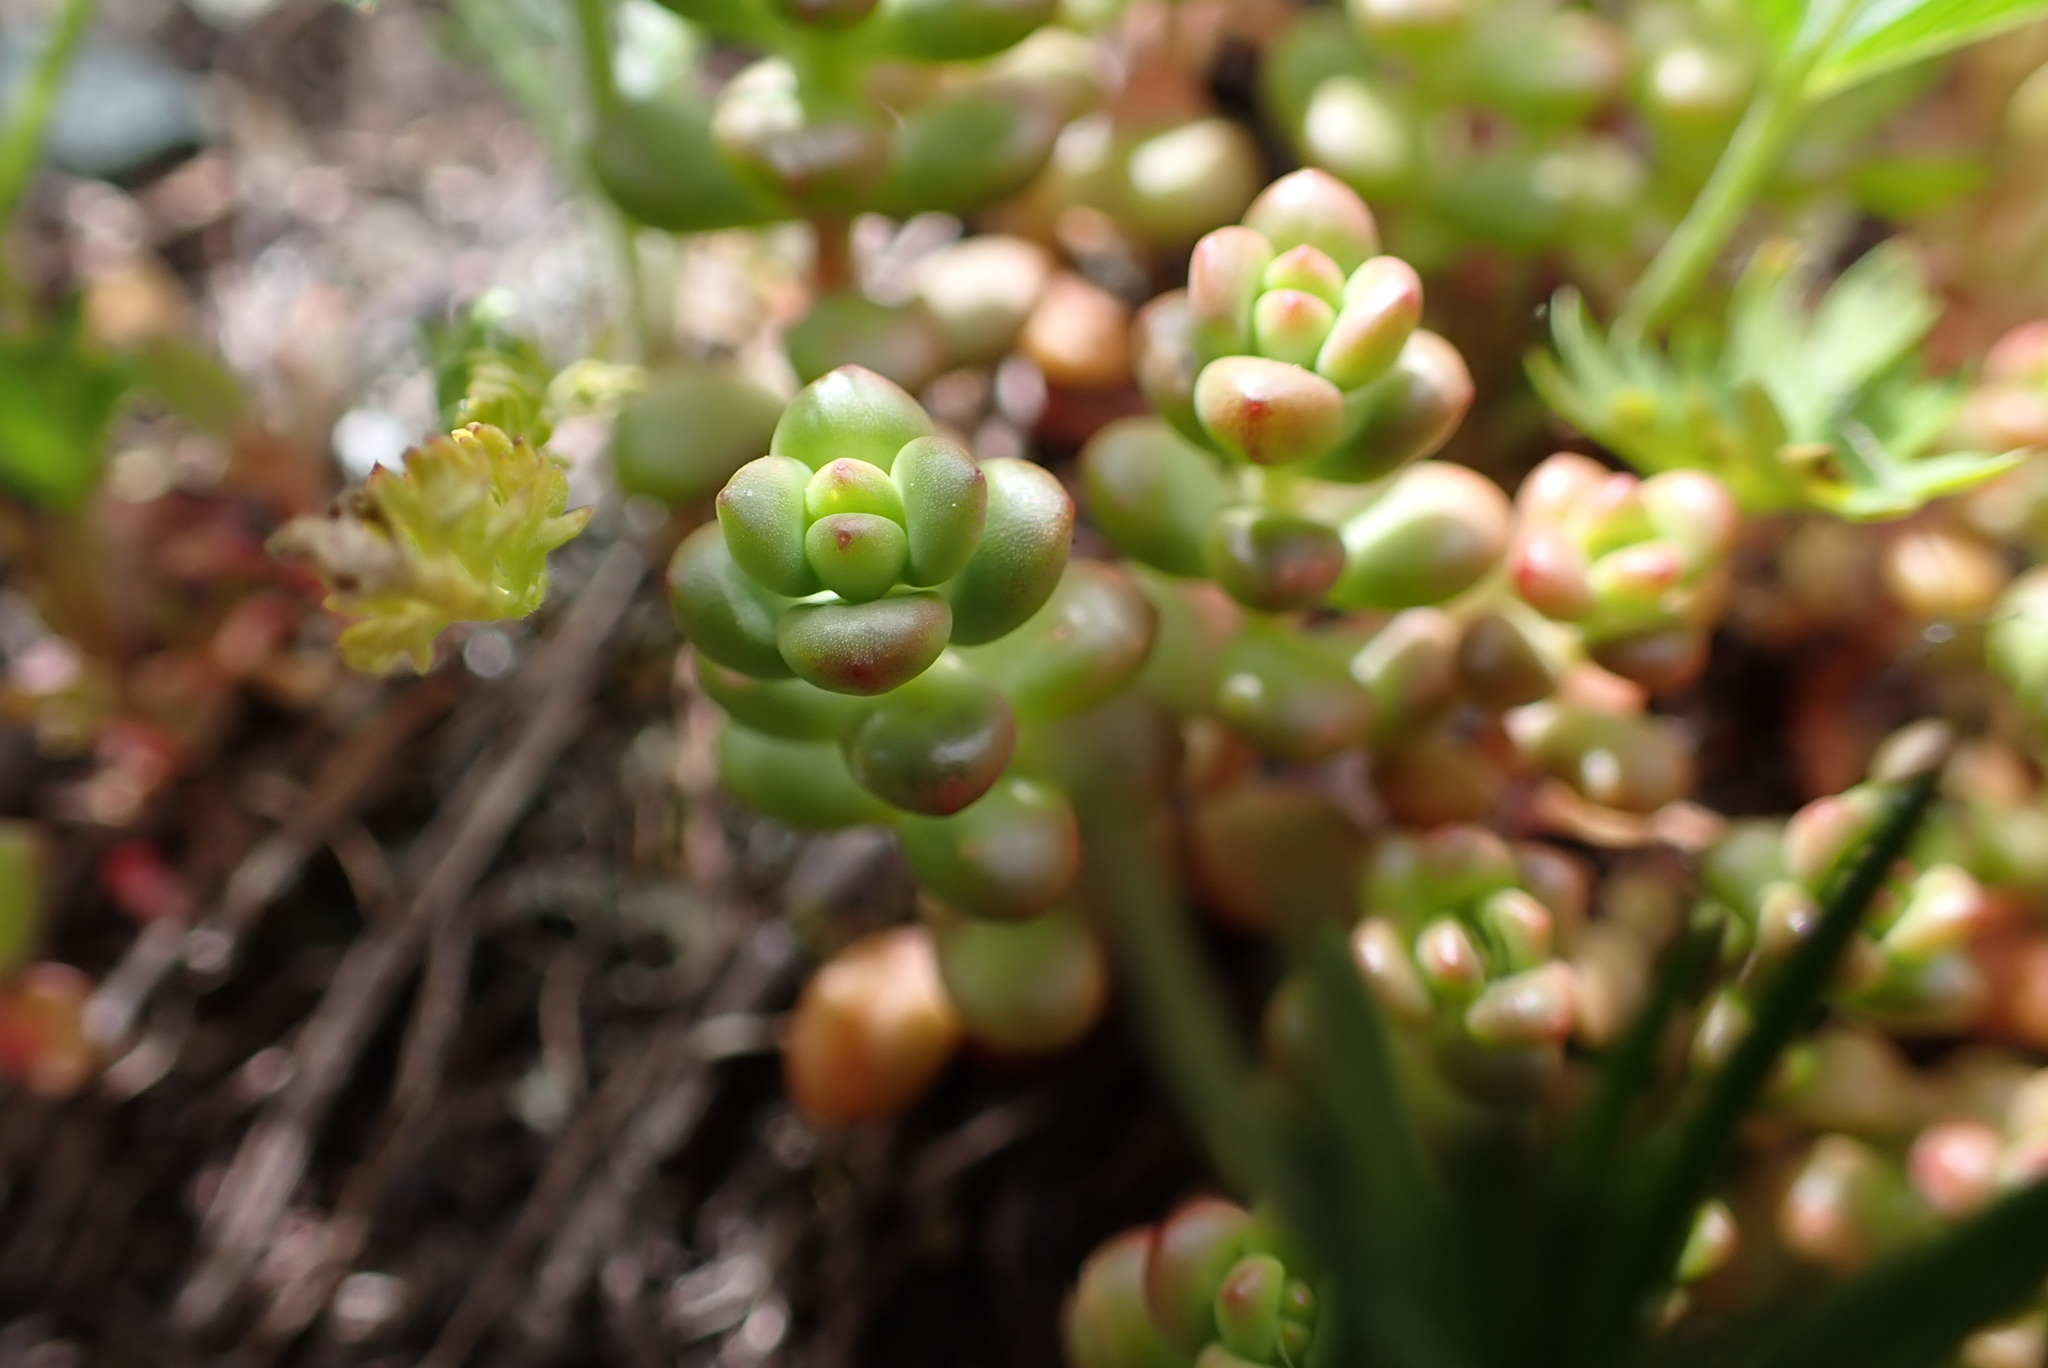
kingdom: Plantae
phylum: Tracheophyta
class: Magnoliopsida
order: Saxifragales
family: Crassulaceae
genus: Sedum
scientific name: Sedum divergens
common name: Cascade stonecrop
